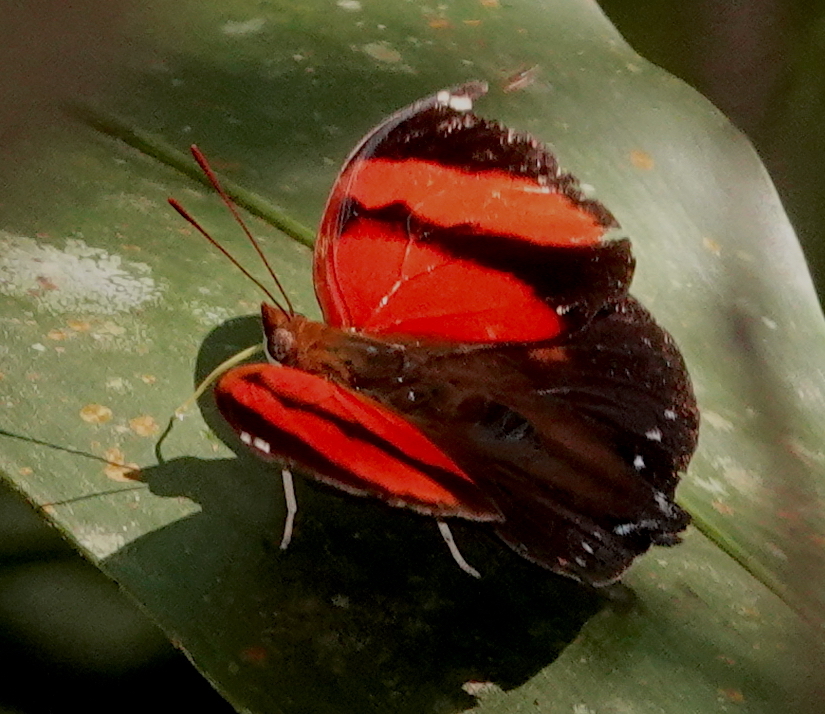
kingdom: Animalia
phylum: Arthropoda
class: Insecta
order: Lepidoptera
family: Nymphalidae
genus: Siderone
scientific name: Siderone galanthis
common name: Red-striped leafwing
